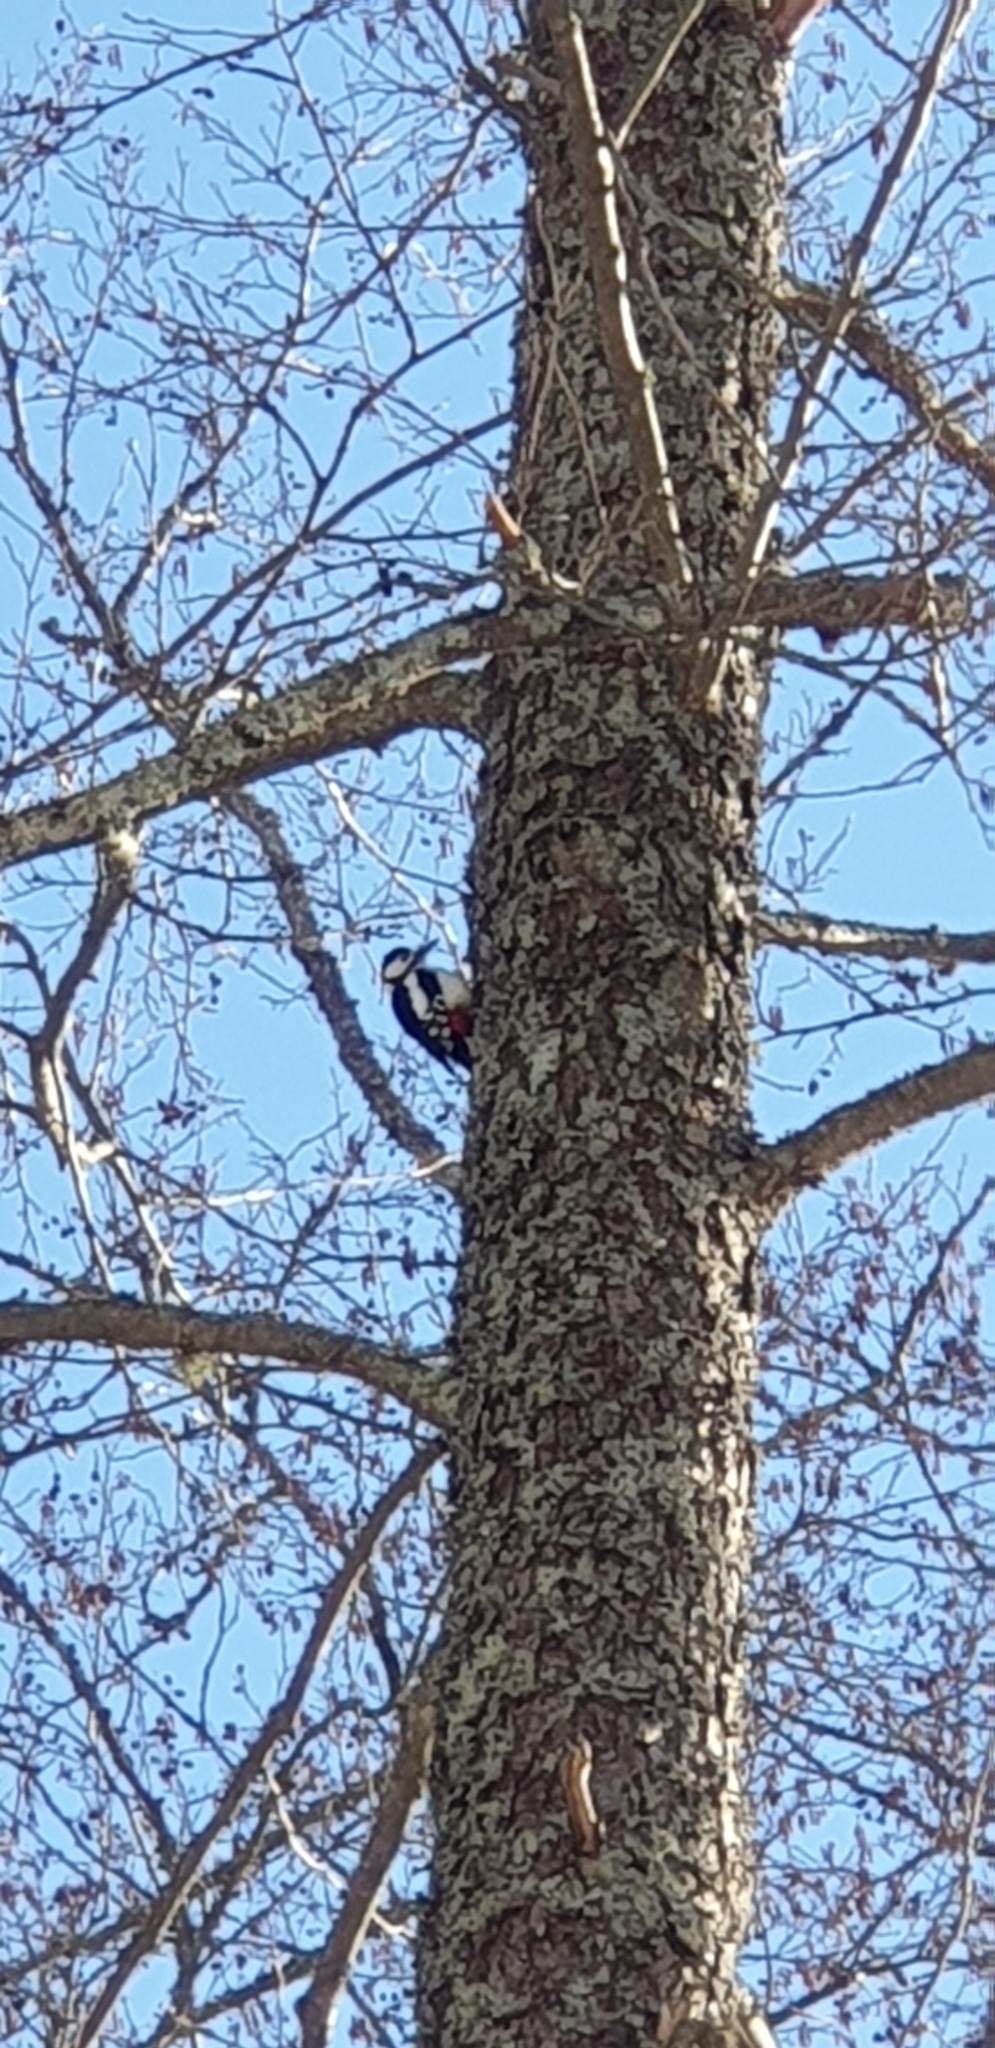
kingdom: Animalia
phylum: Chordata
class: Aves
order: Piciformes
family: Picidae
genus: Dendrocopos
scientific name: Dendrocopos major
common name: Great spotted woodpecker
